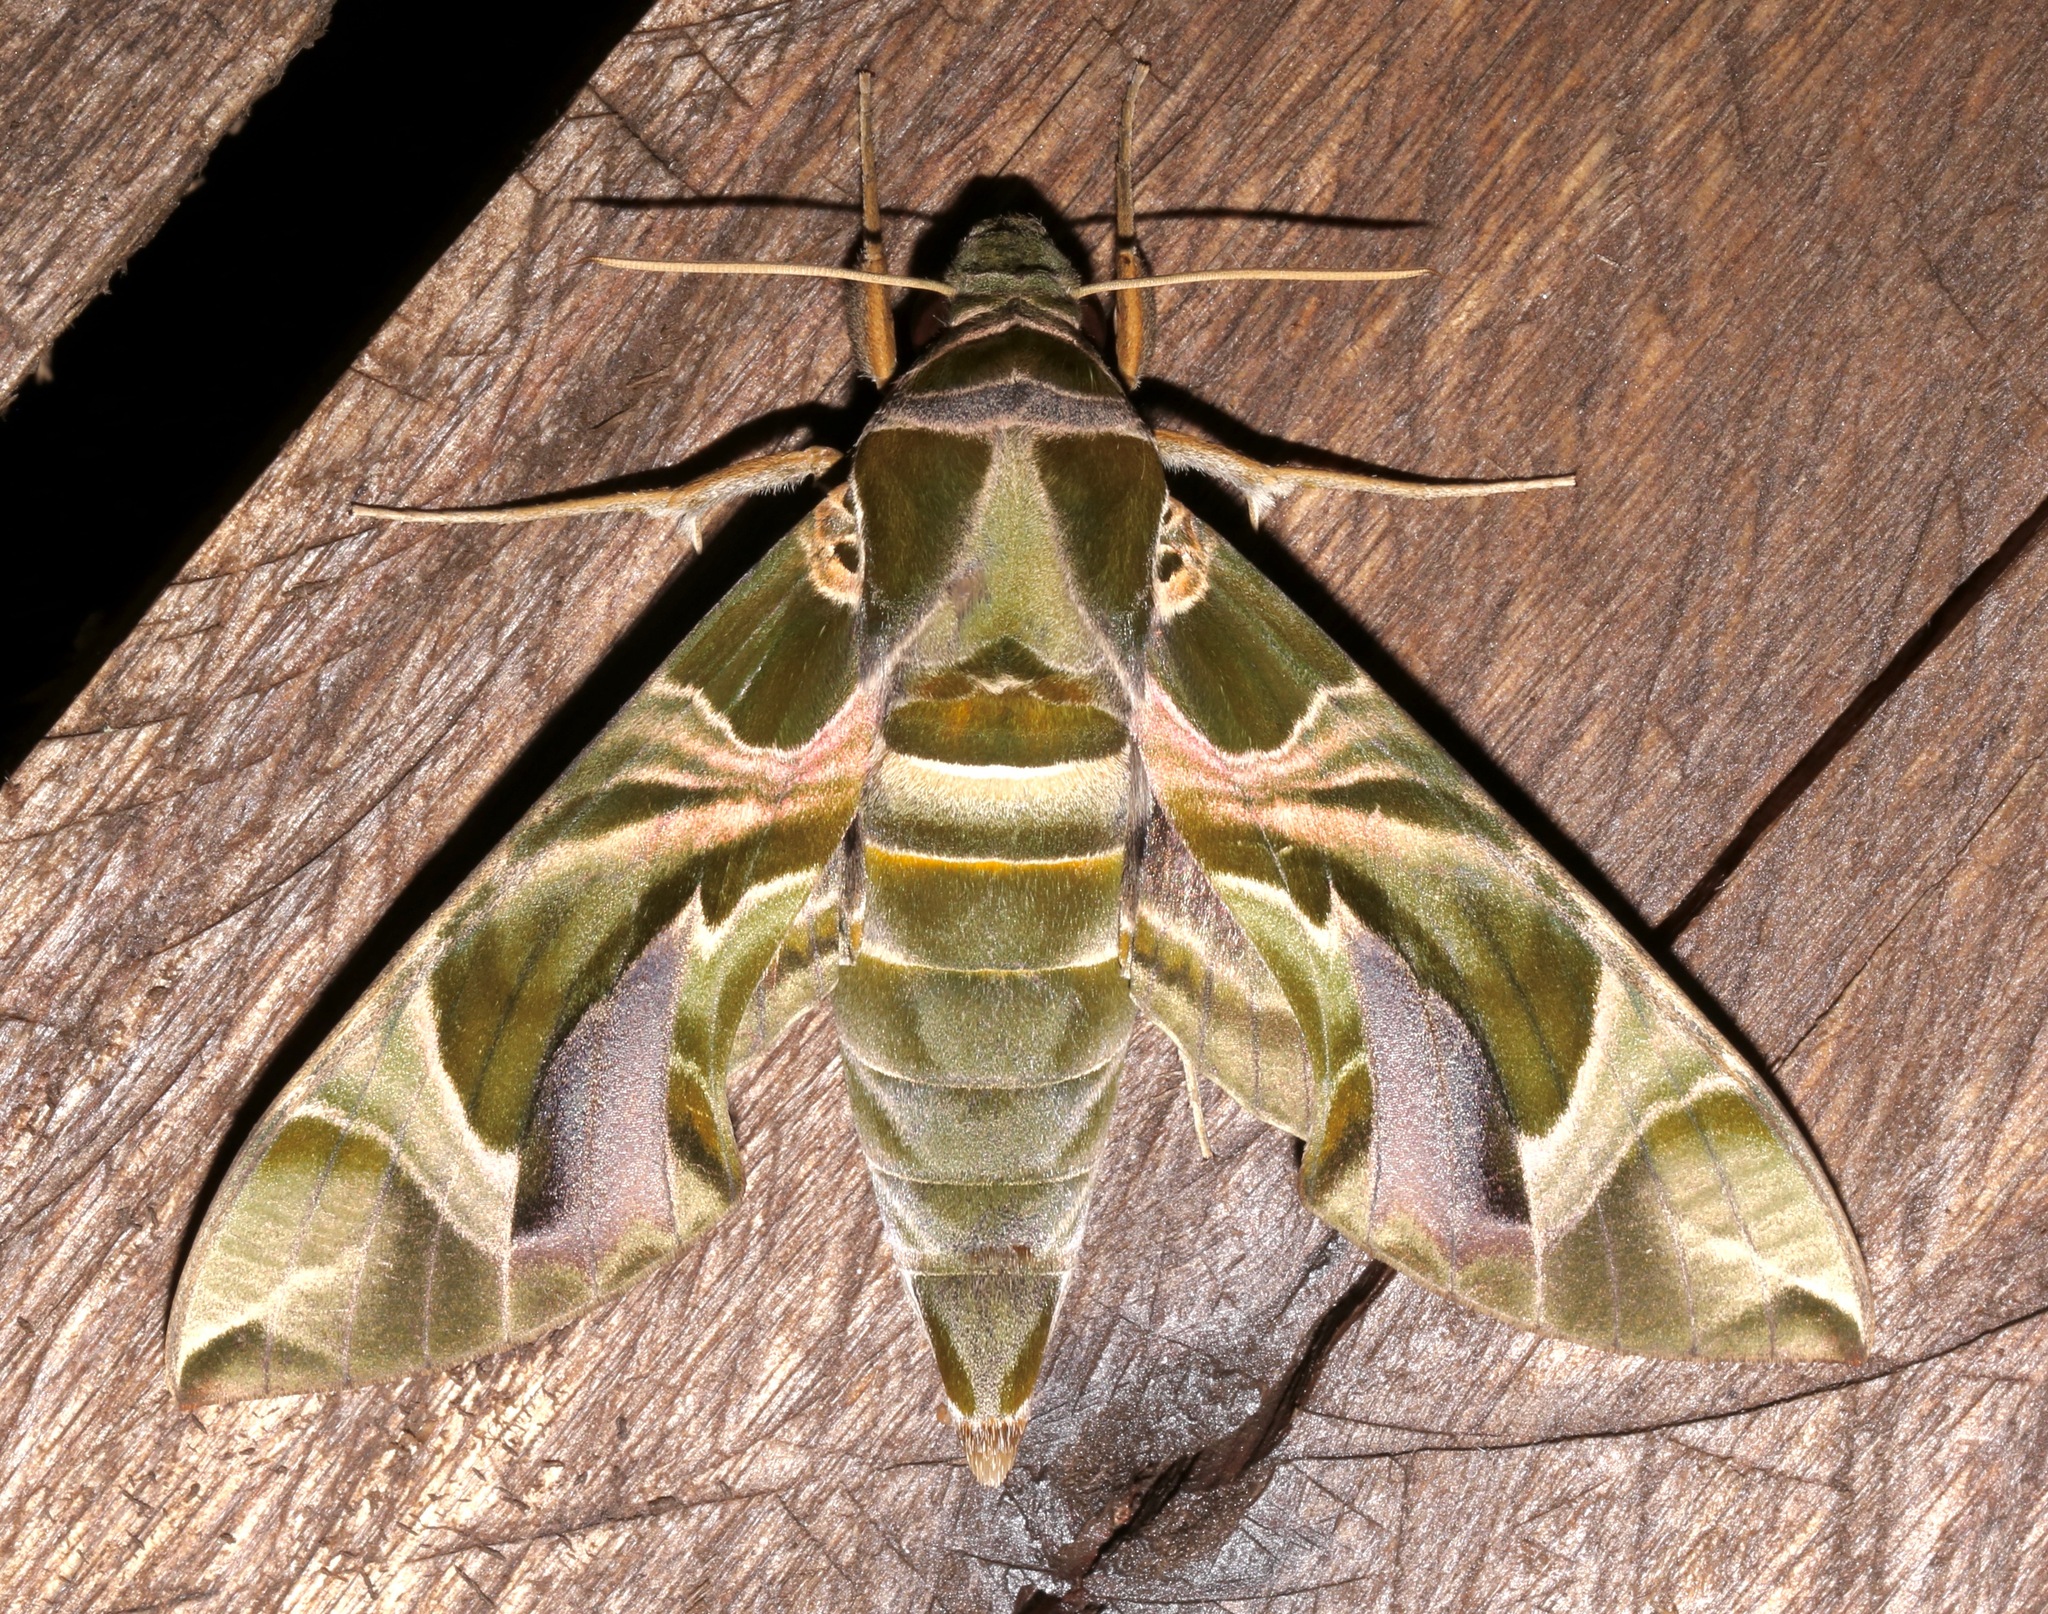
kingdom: Animalia
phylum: Arthropoda
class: Insecta
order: Lepidoptera
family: Sphingidae
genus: Daphnis
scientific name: Daphnis nerii
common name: Oleander hawk-moth
